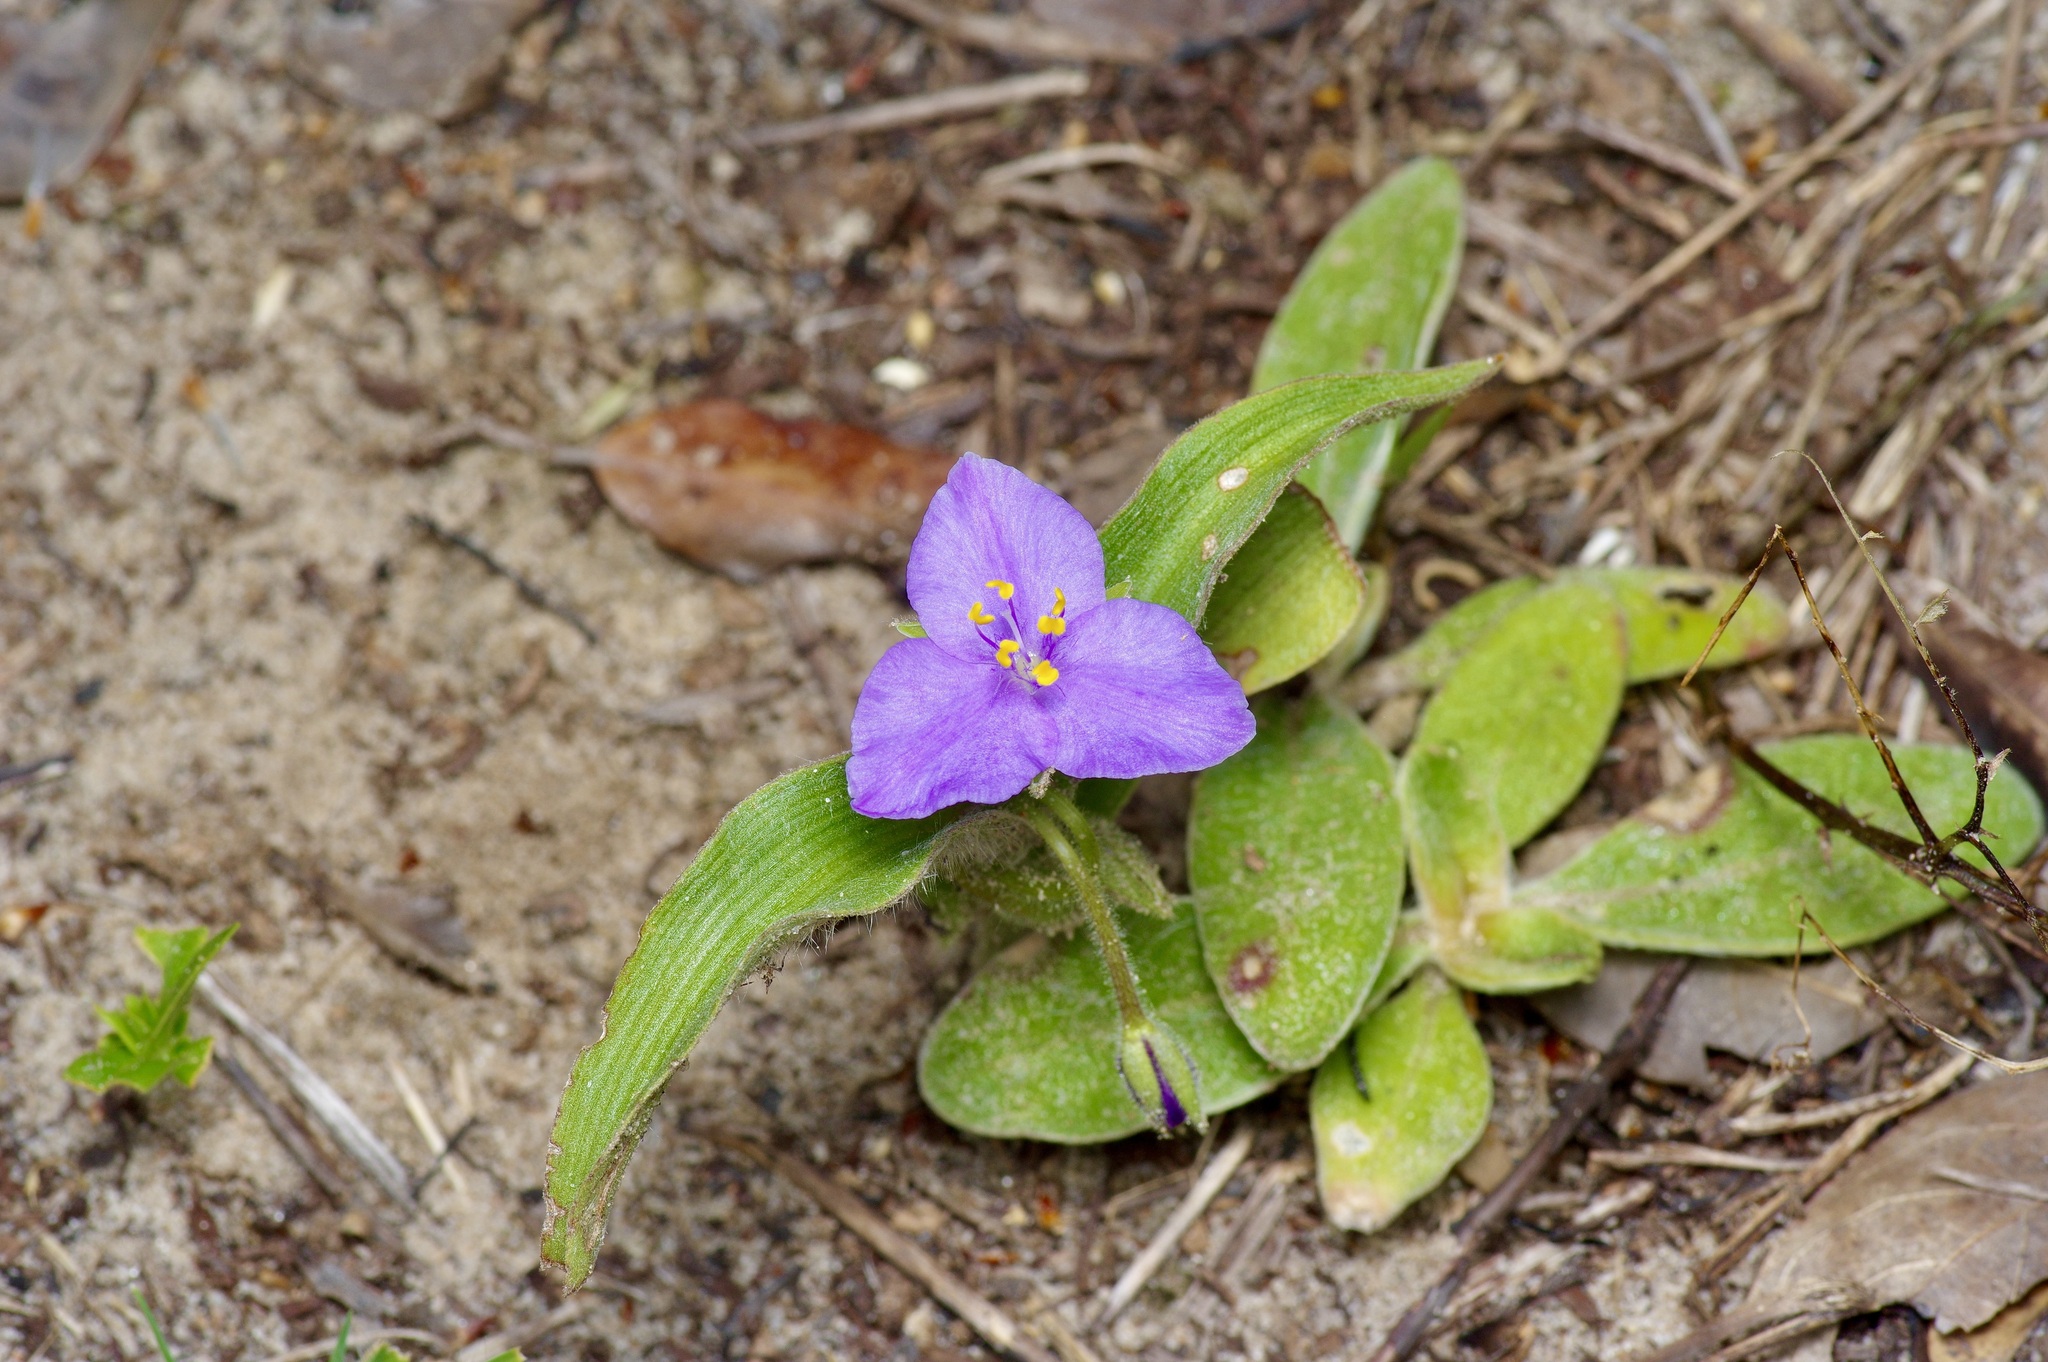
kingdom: Plantae
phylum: Tracheophyta
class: Liliopsida
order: Commelinales
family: Commelinaceae
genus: Tradescantia
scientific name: Tradescantia subacaulis
